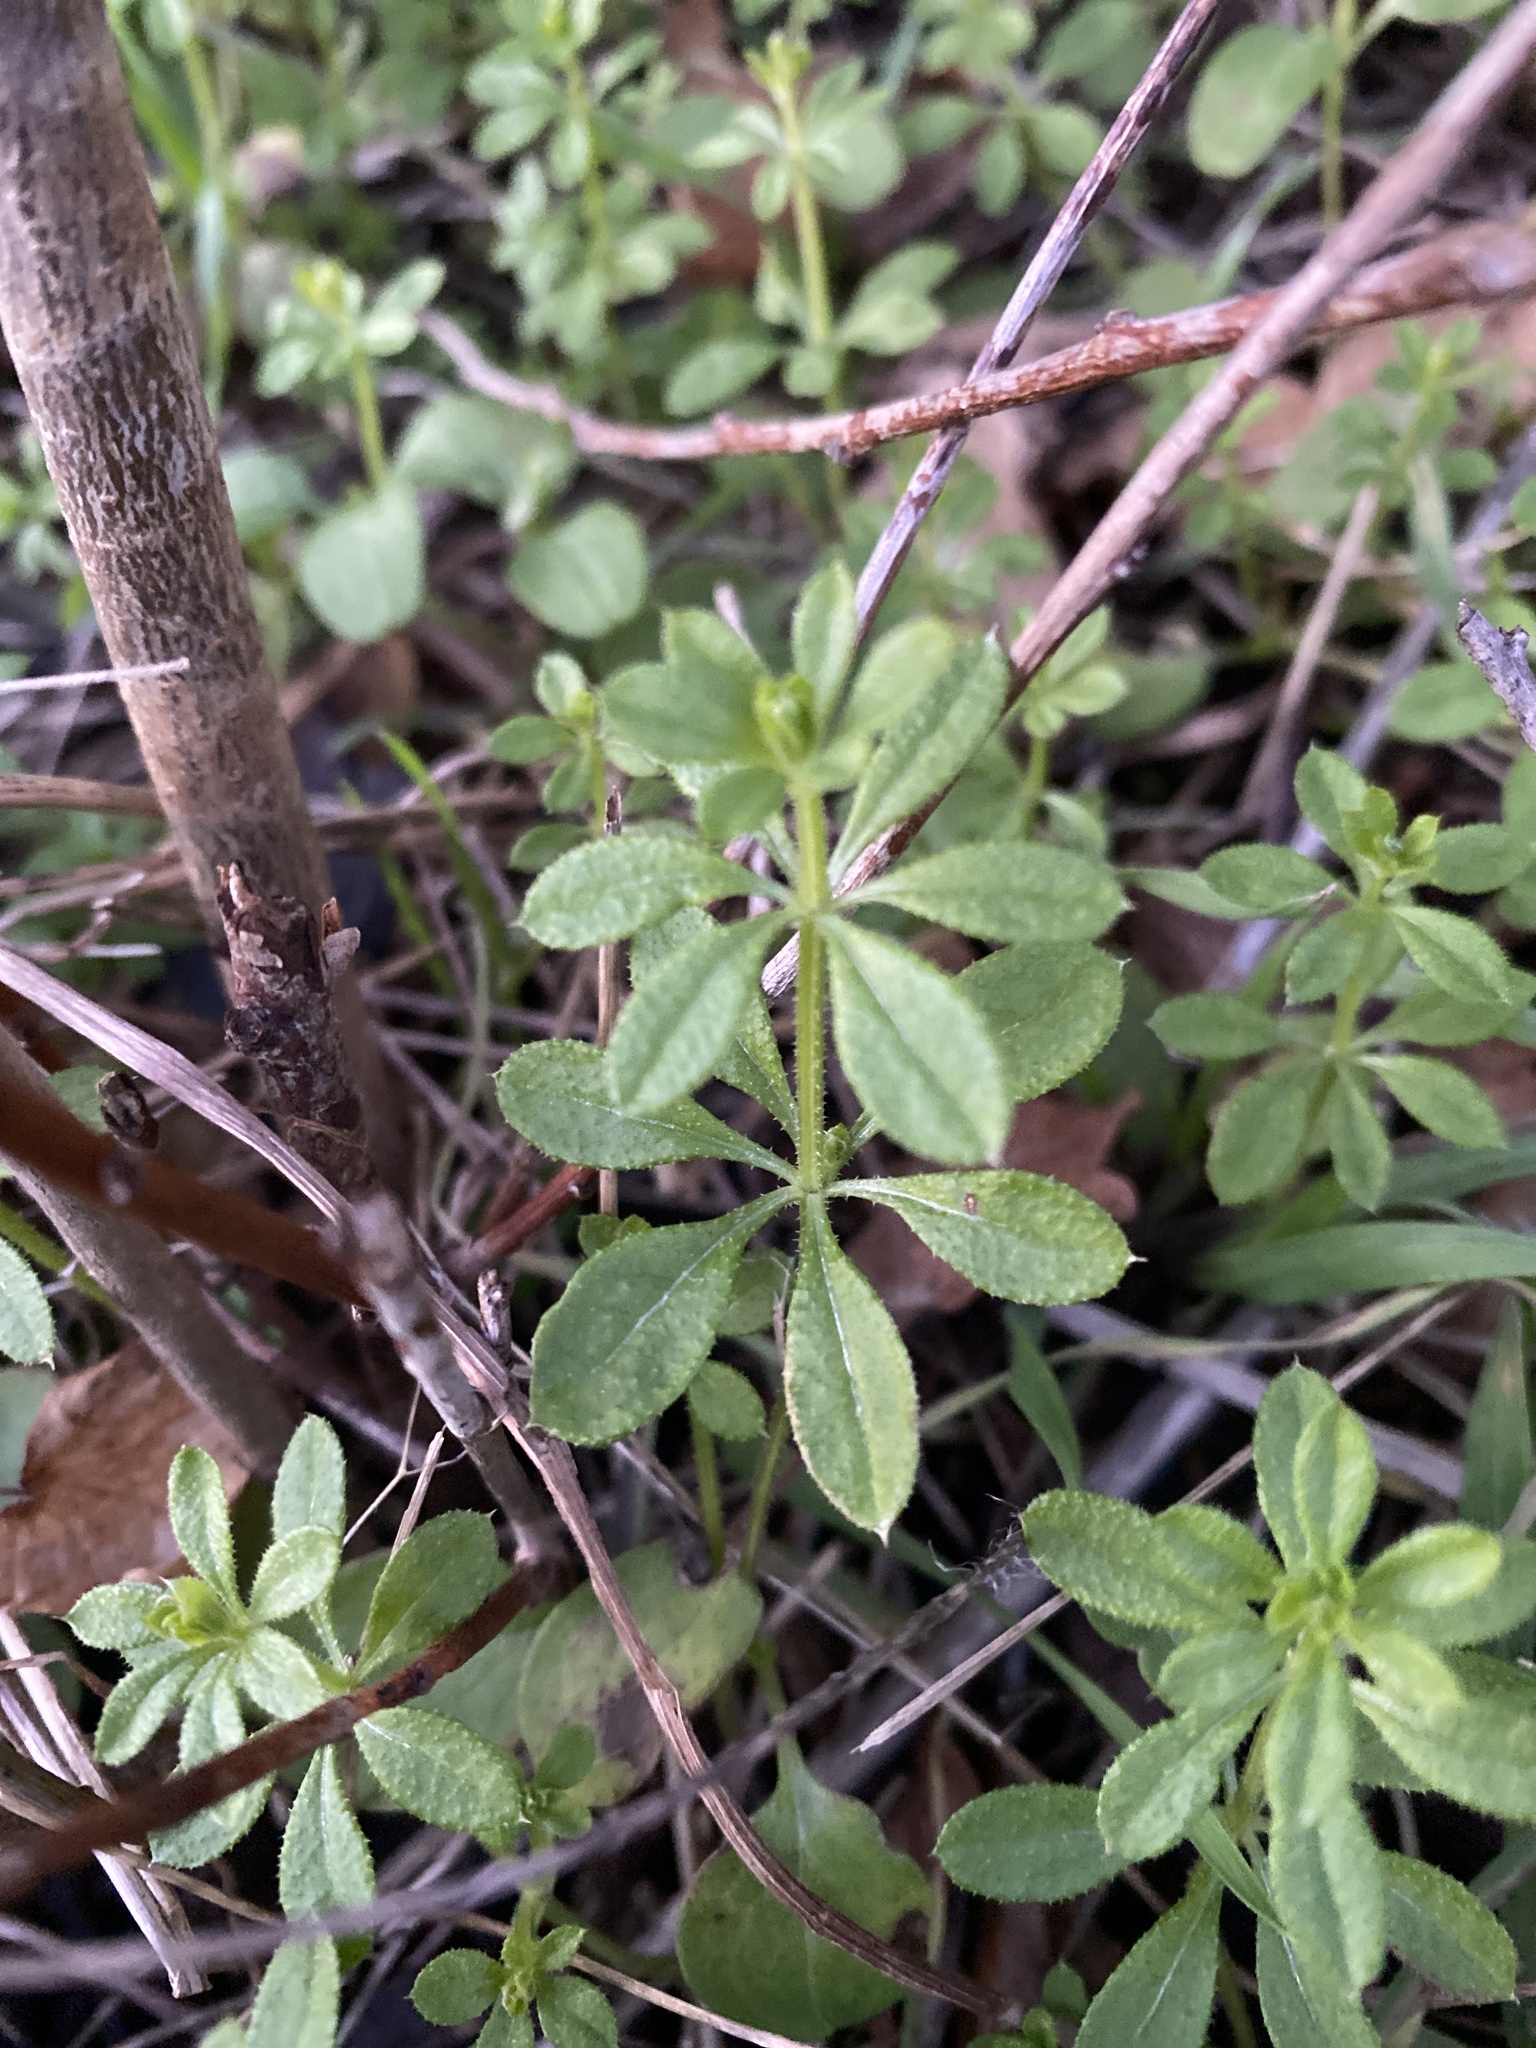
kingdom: Plantae
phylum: Tracheophyta
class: Magnoliopsida
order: Gentianales
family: Rubiaceae
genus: Galium
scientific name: Galium aparine
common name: Cleavers
